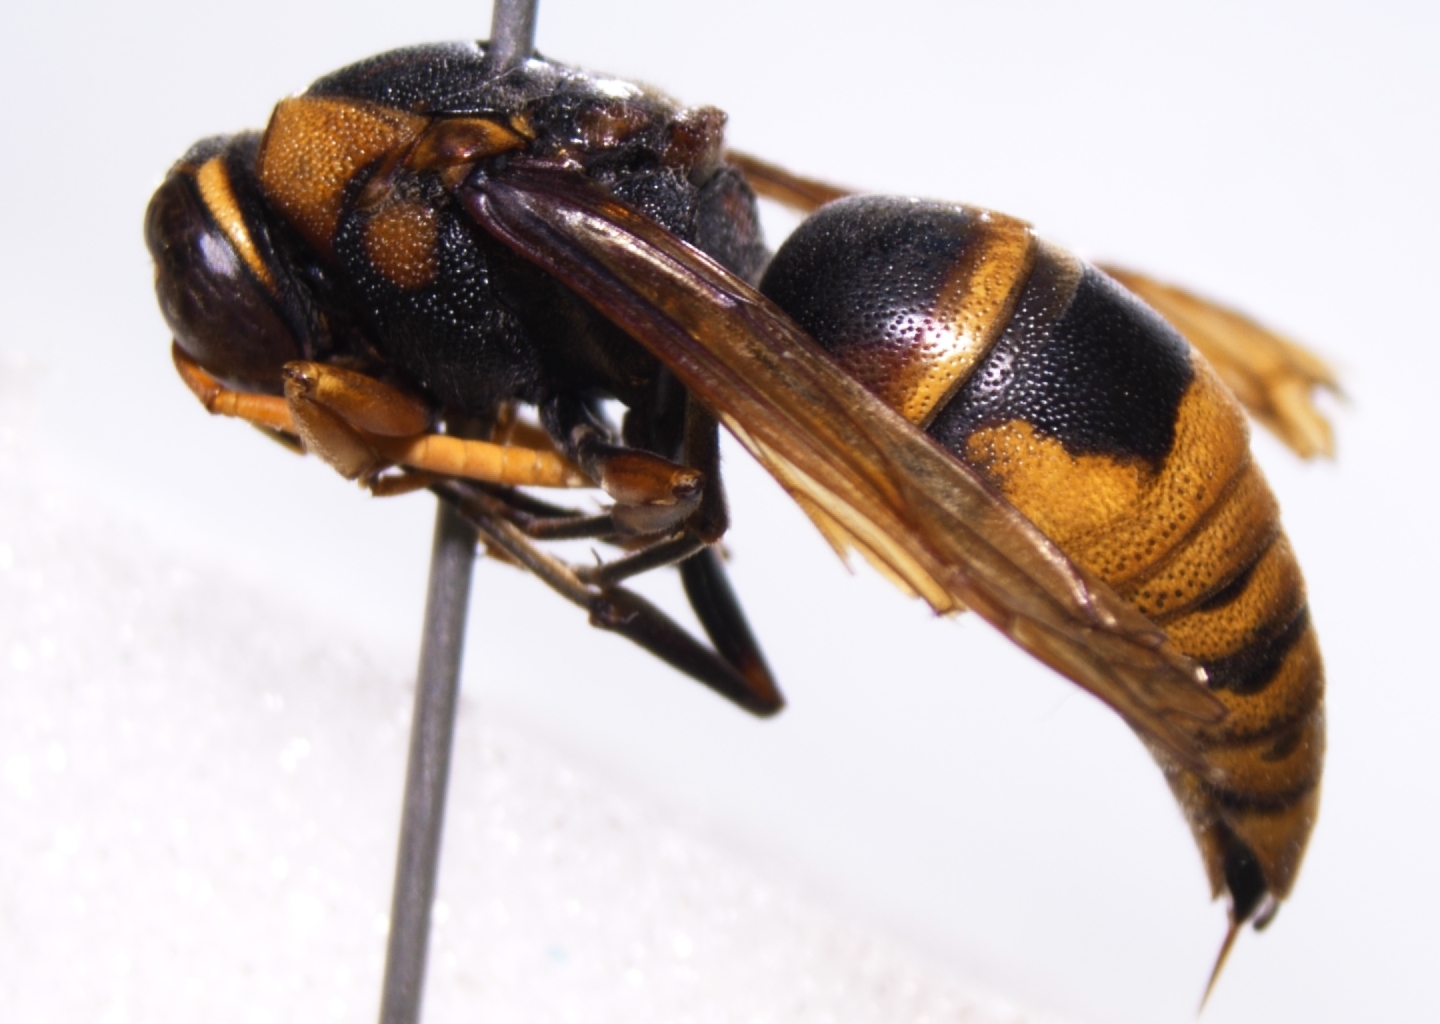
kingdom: Animalia
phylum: Arthropoda
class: Insecta
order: Hymenoptera
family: Eumenidae
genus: Rhynchium
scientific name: Rhynchium haemorrhoidale
